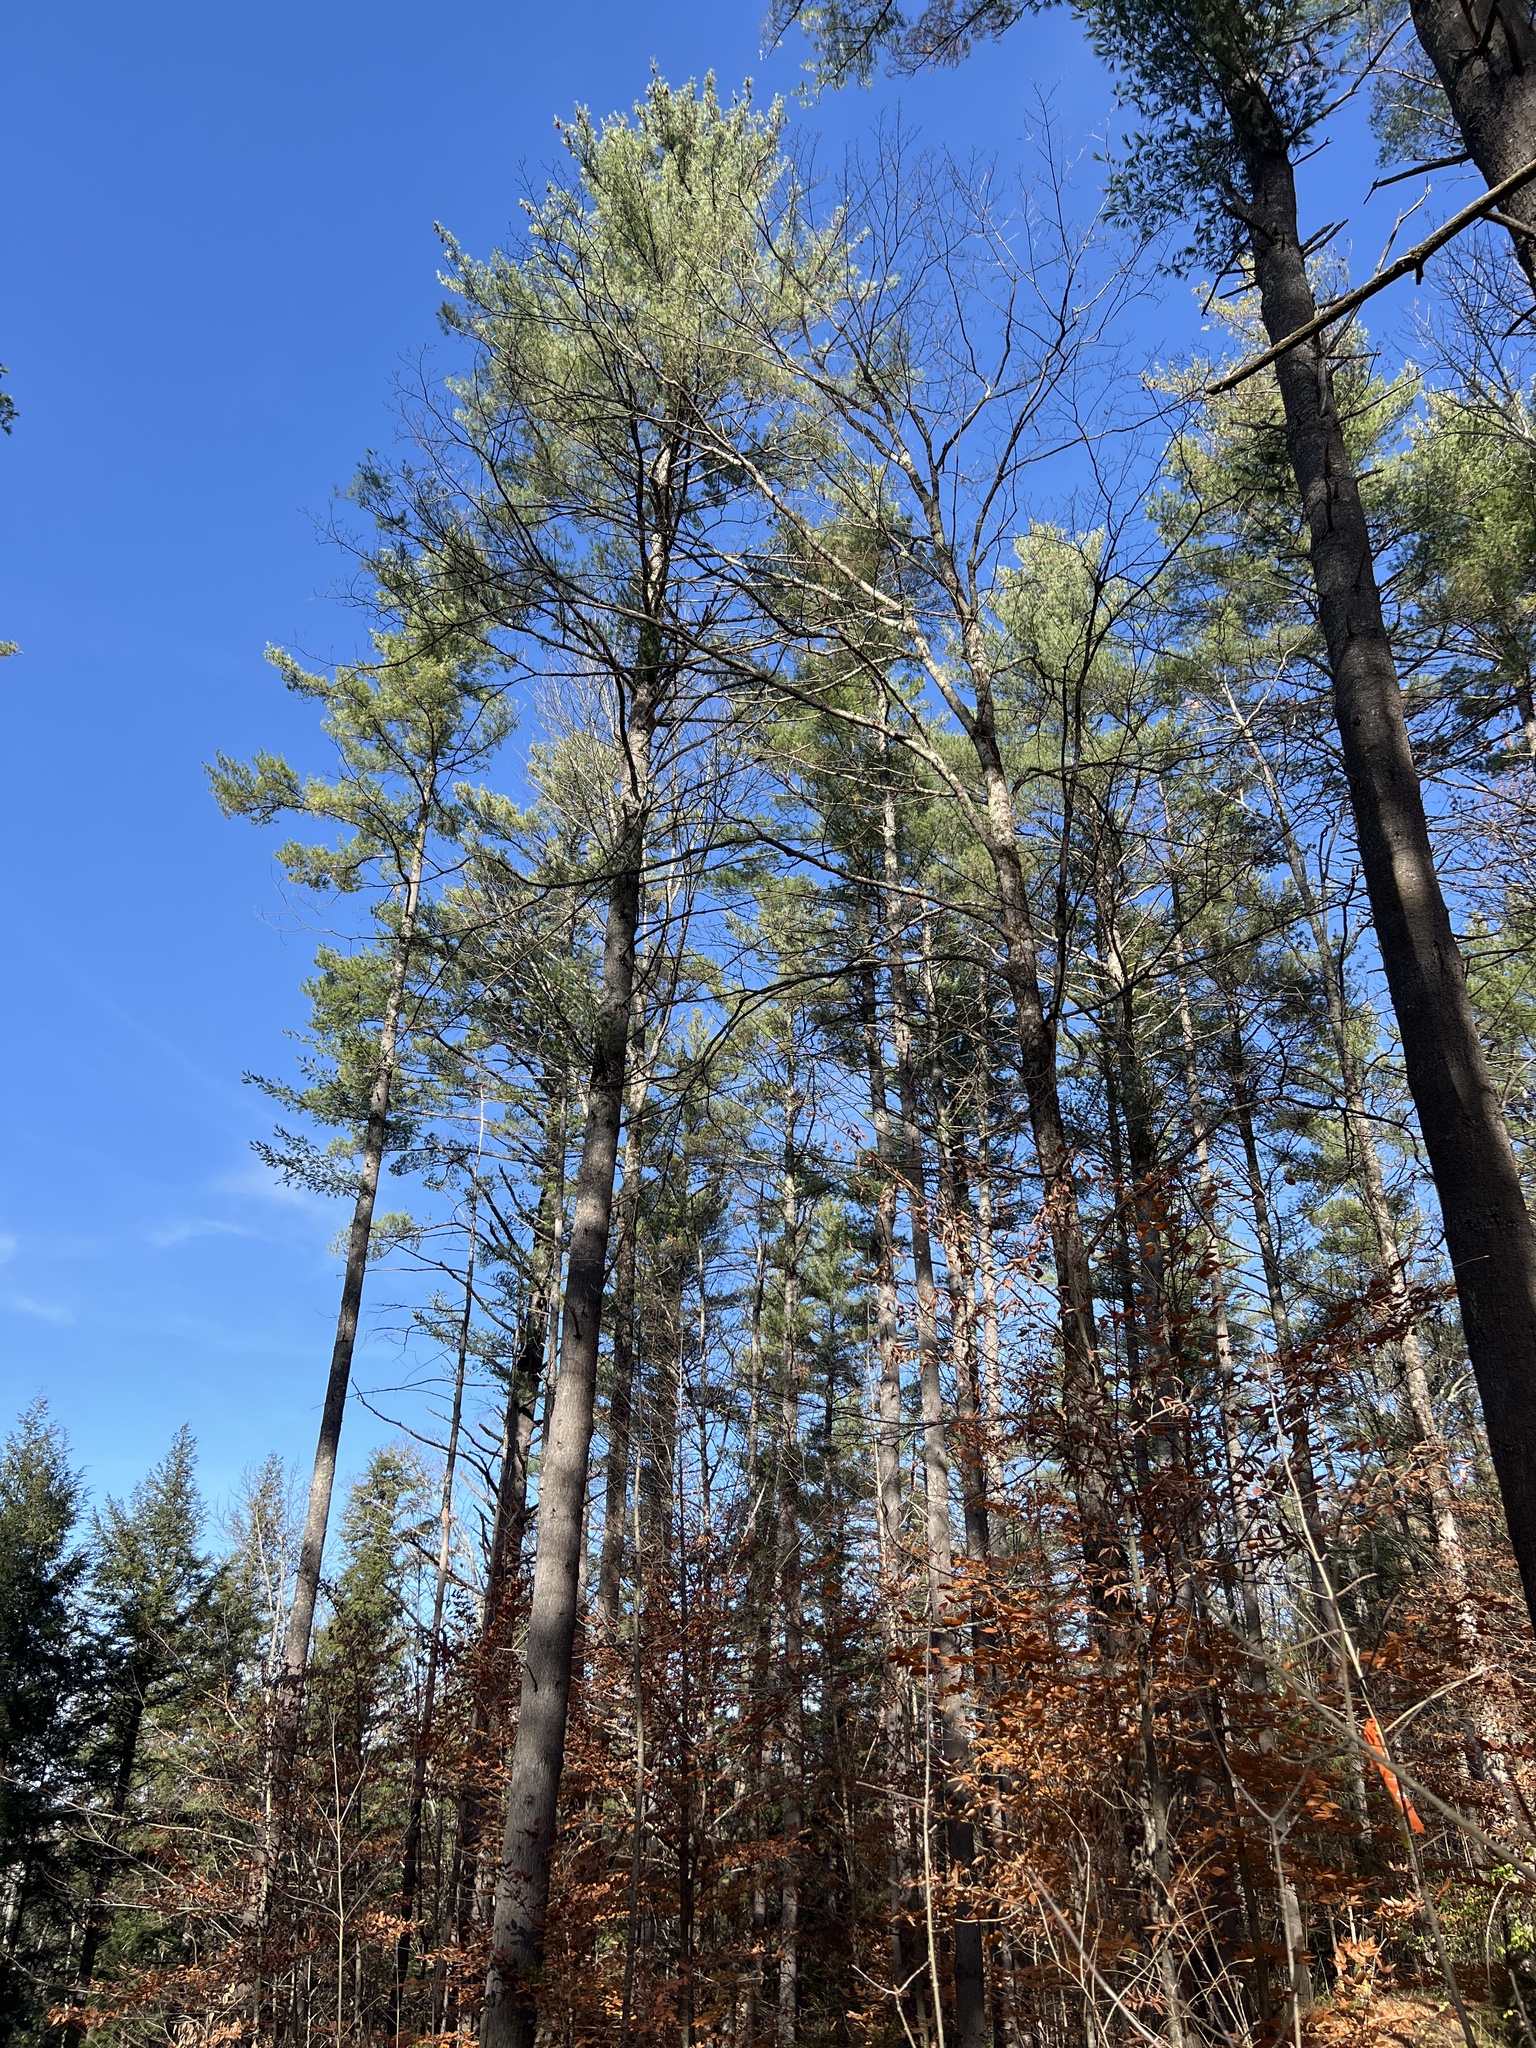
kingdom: Plantae
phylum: Tracheophyta
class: Pinopsida
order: Pinales
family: Pinaceae
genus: Pinus
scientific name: Pinus strobus
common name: Weymouth pine
